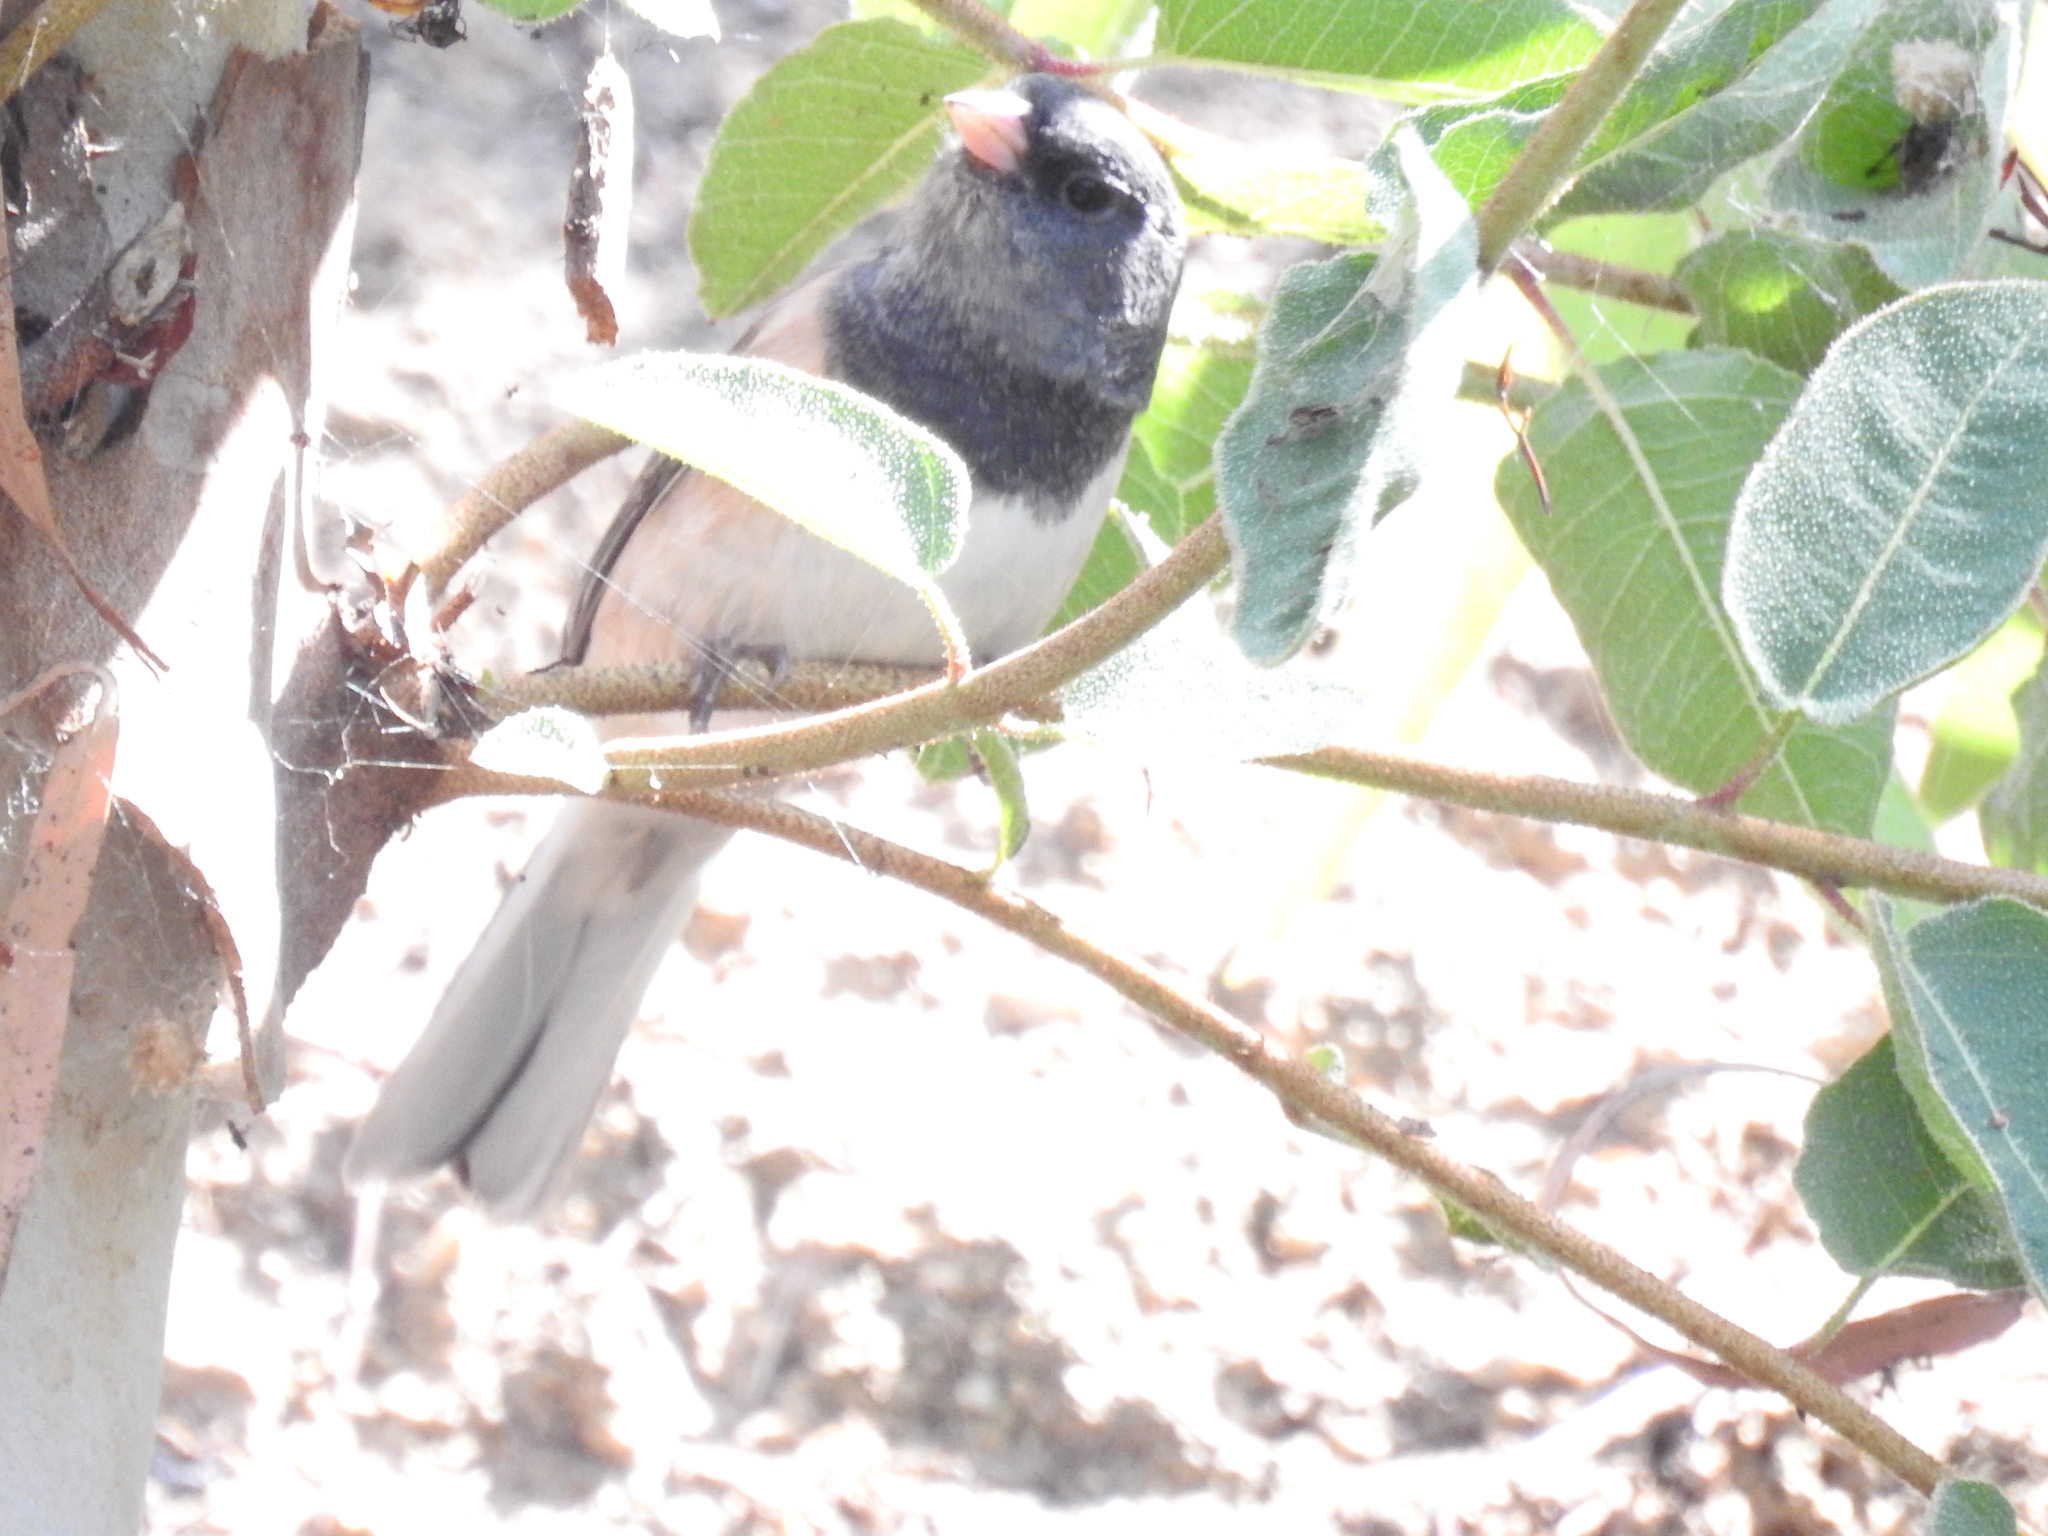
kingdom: Animalia
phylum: Chordata
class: Aves
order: Passeriformes
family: Passerellidae
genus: Junco
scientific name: Junco hyemalis
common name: Dark-eyed junco
